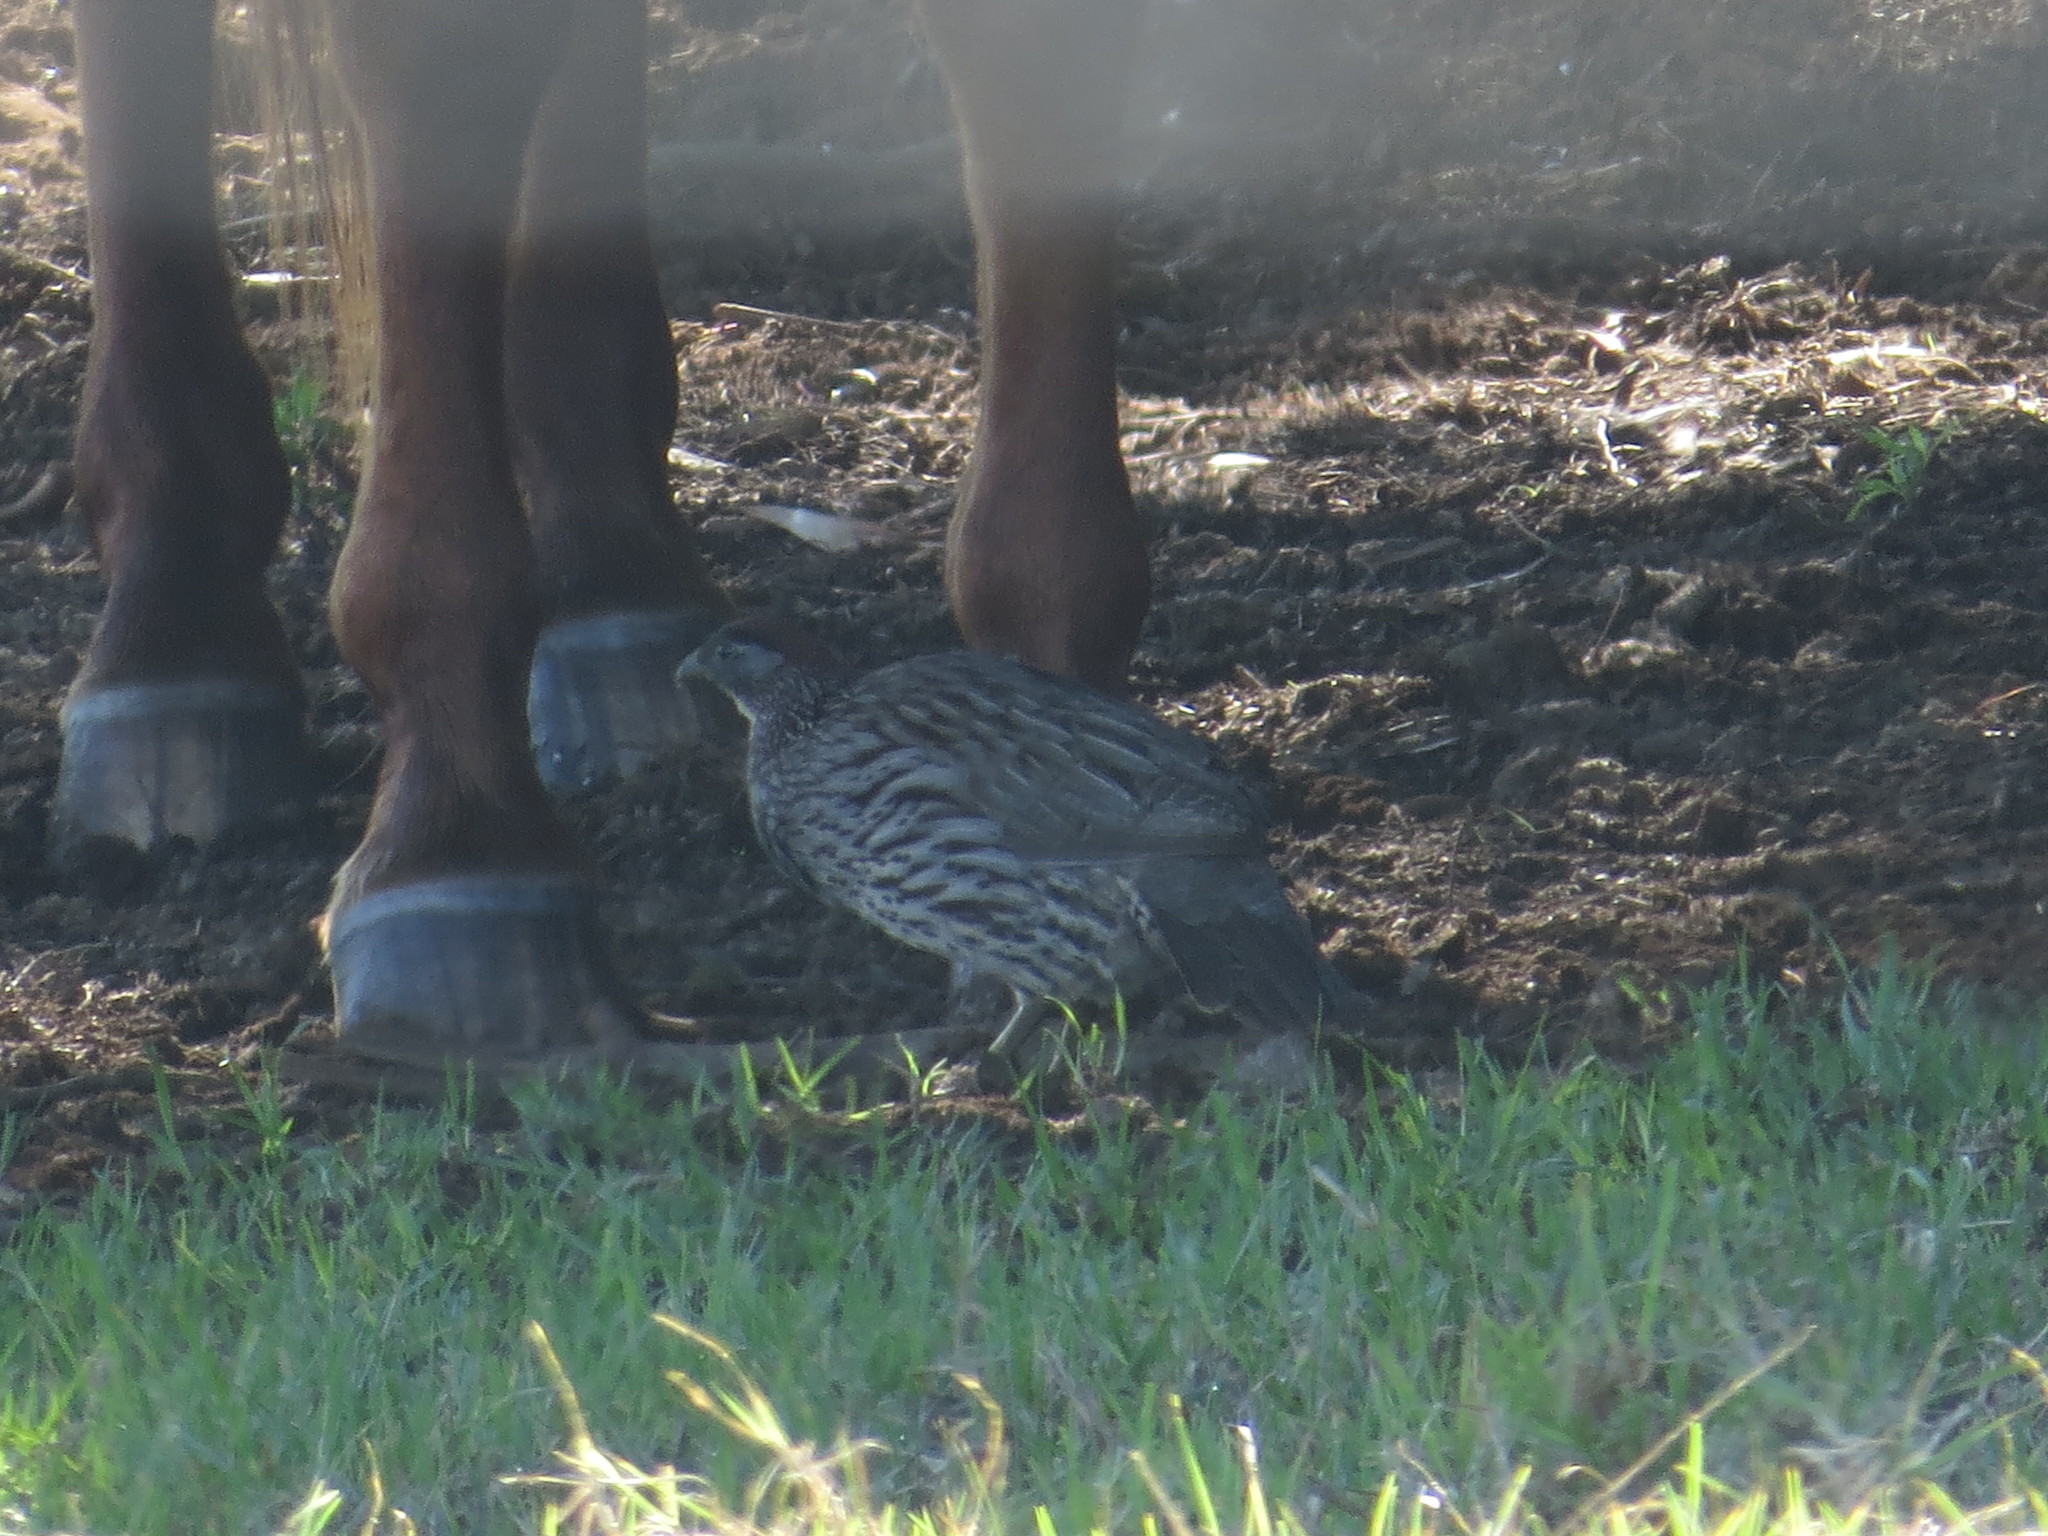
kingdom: Animalia
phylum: Chordata
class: Aves
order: Galliformes
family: Phasianidae
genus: Pternistis
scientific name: Pternistis erckelii
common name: Erckel's francolin
